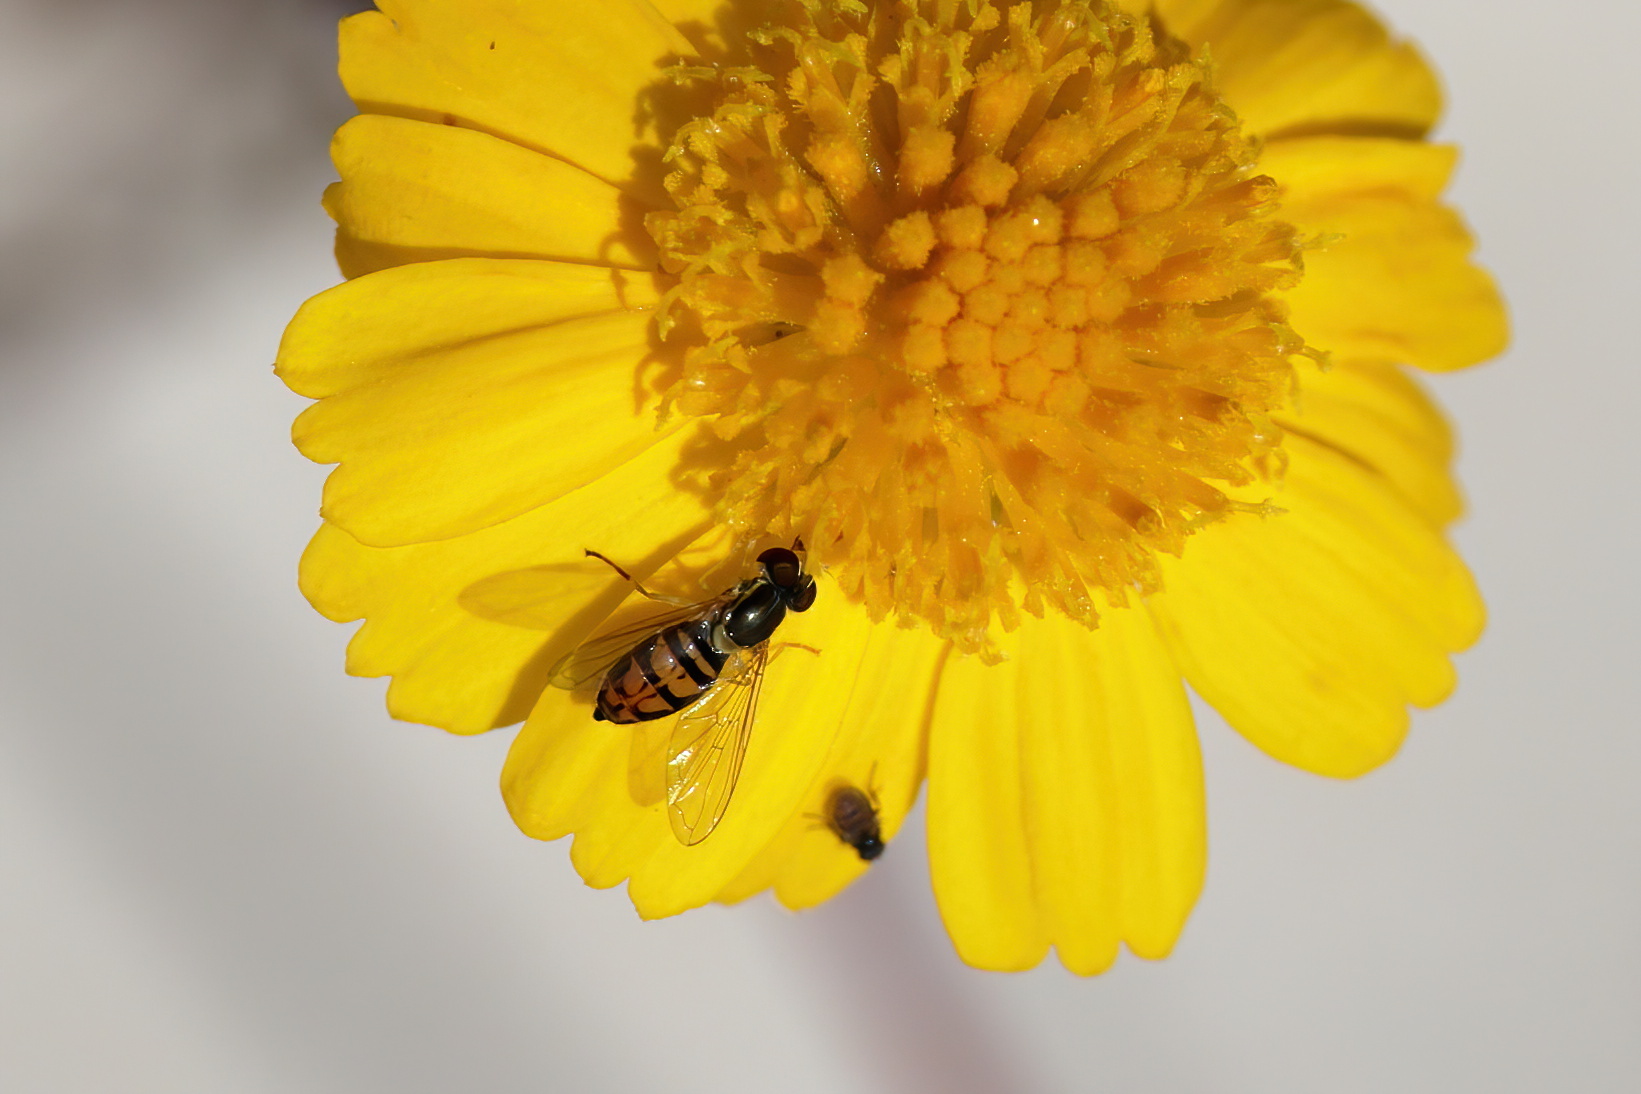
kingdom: Animalia
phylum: Arthropoda
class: Insecta
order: Diptera
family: Syrphidae
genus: Toxomerus
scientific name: Toxomerus marginatus
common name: Syrphid fly
